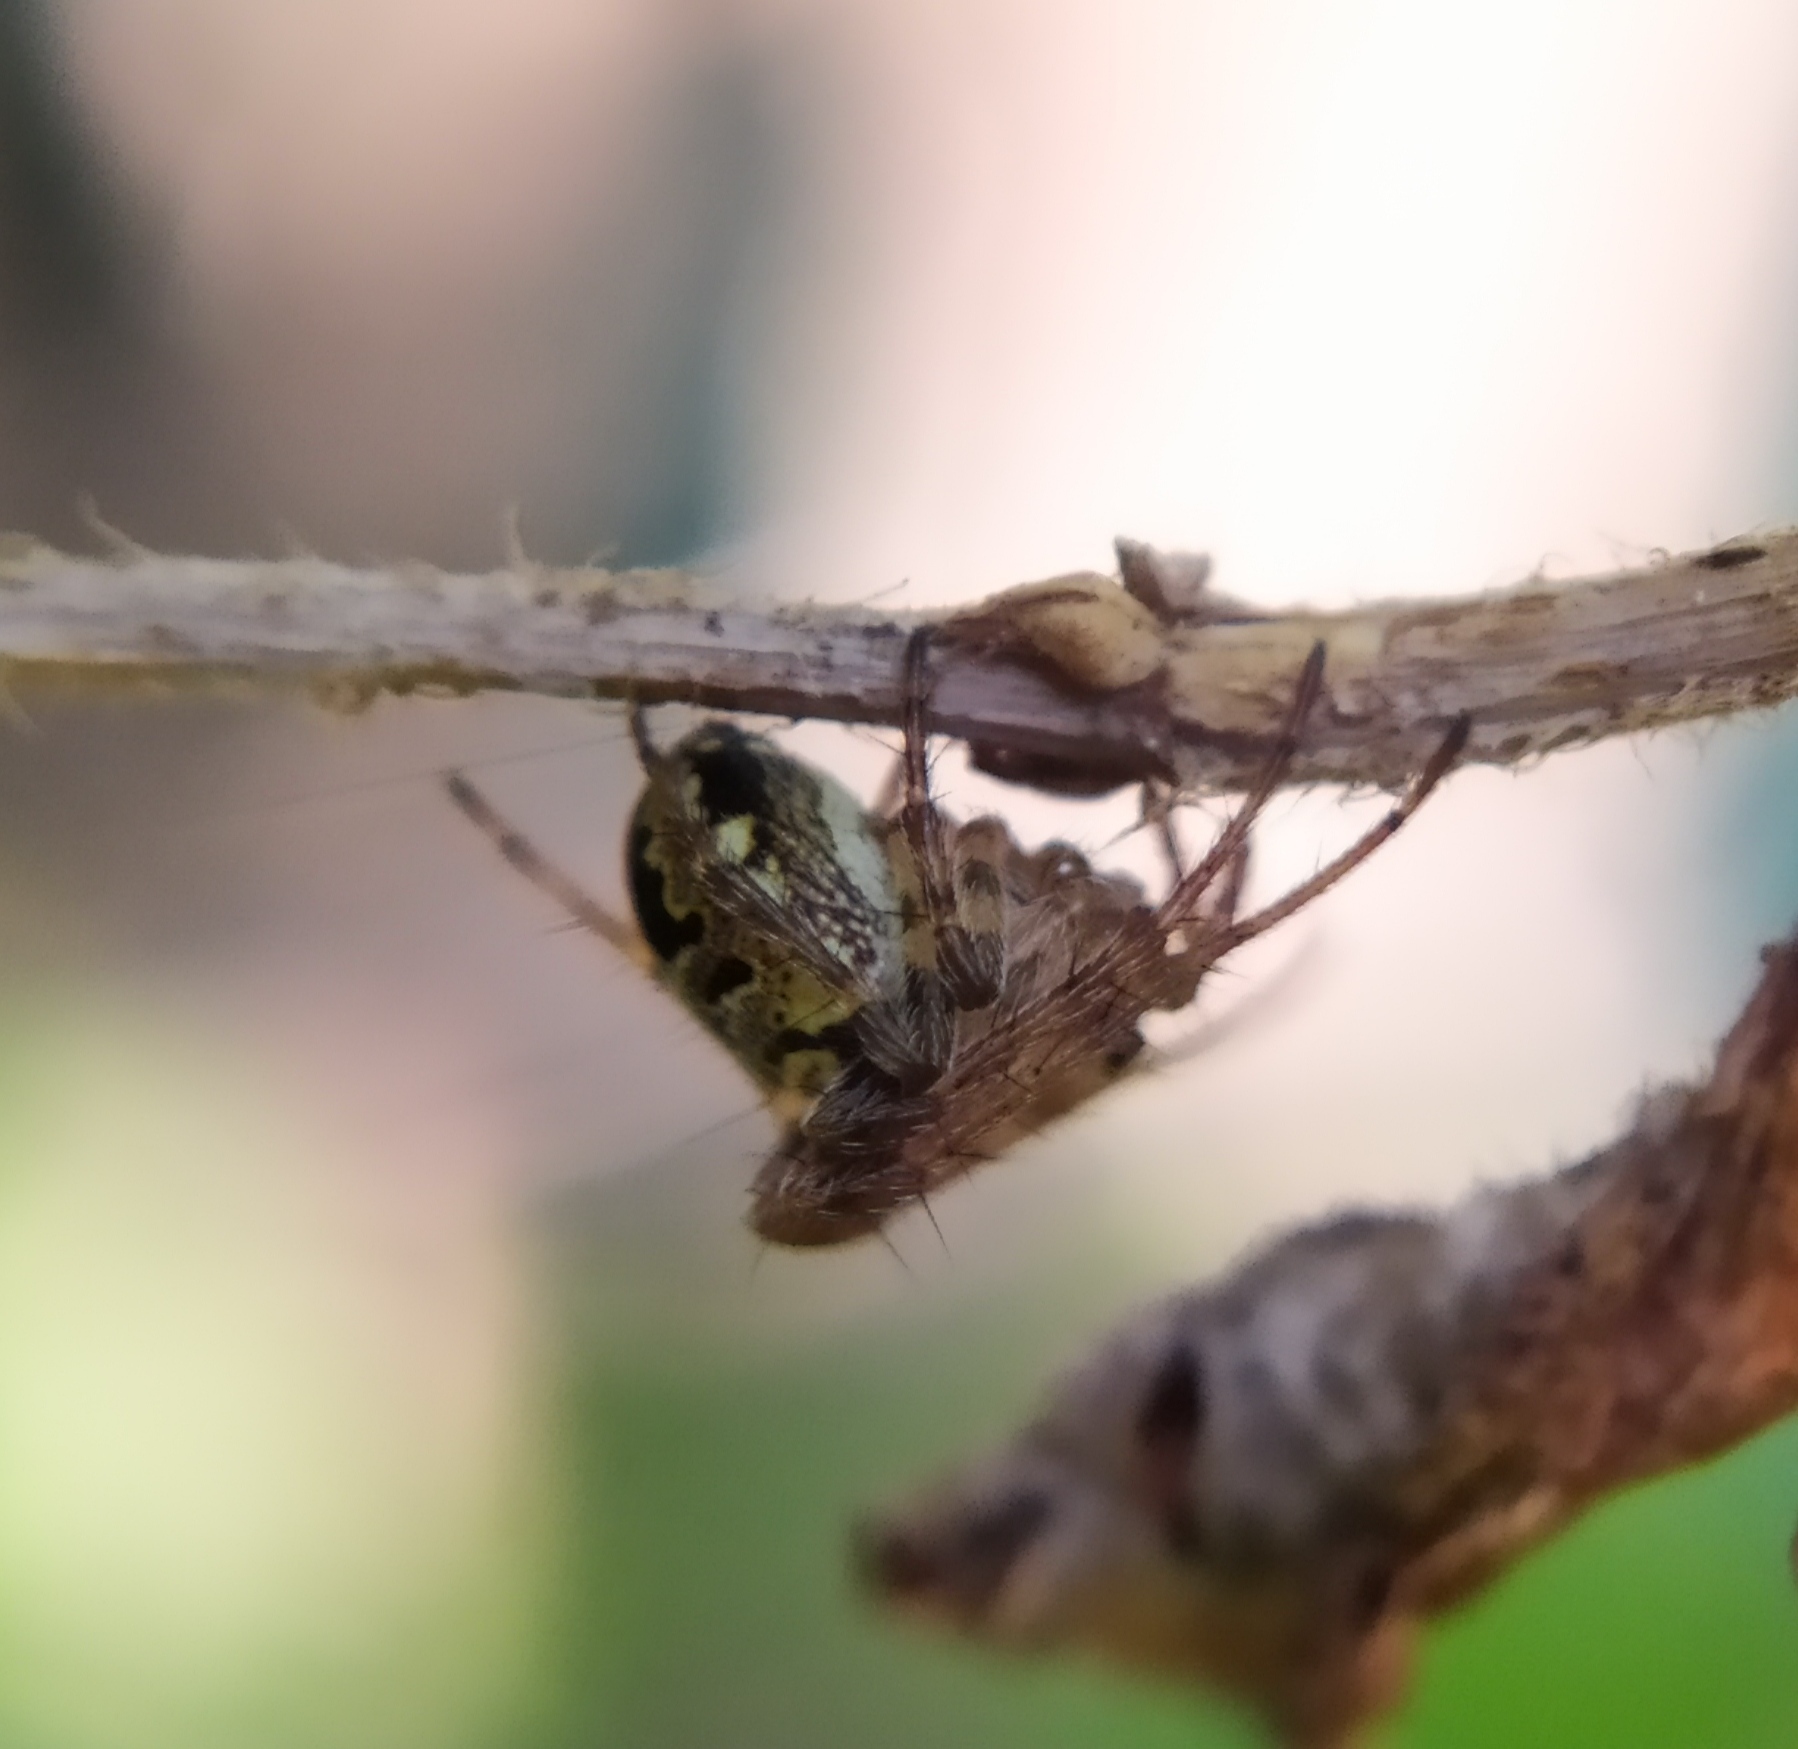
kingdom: Animalia
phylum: Arthropoda
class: Arachnida
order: Araneae
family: Araneidae
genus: Zilla
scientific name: Zilla diodia
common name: Zilla diodia
